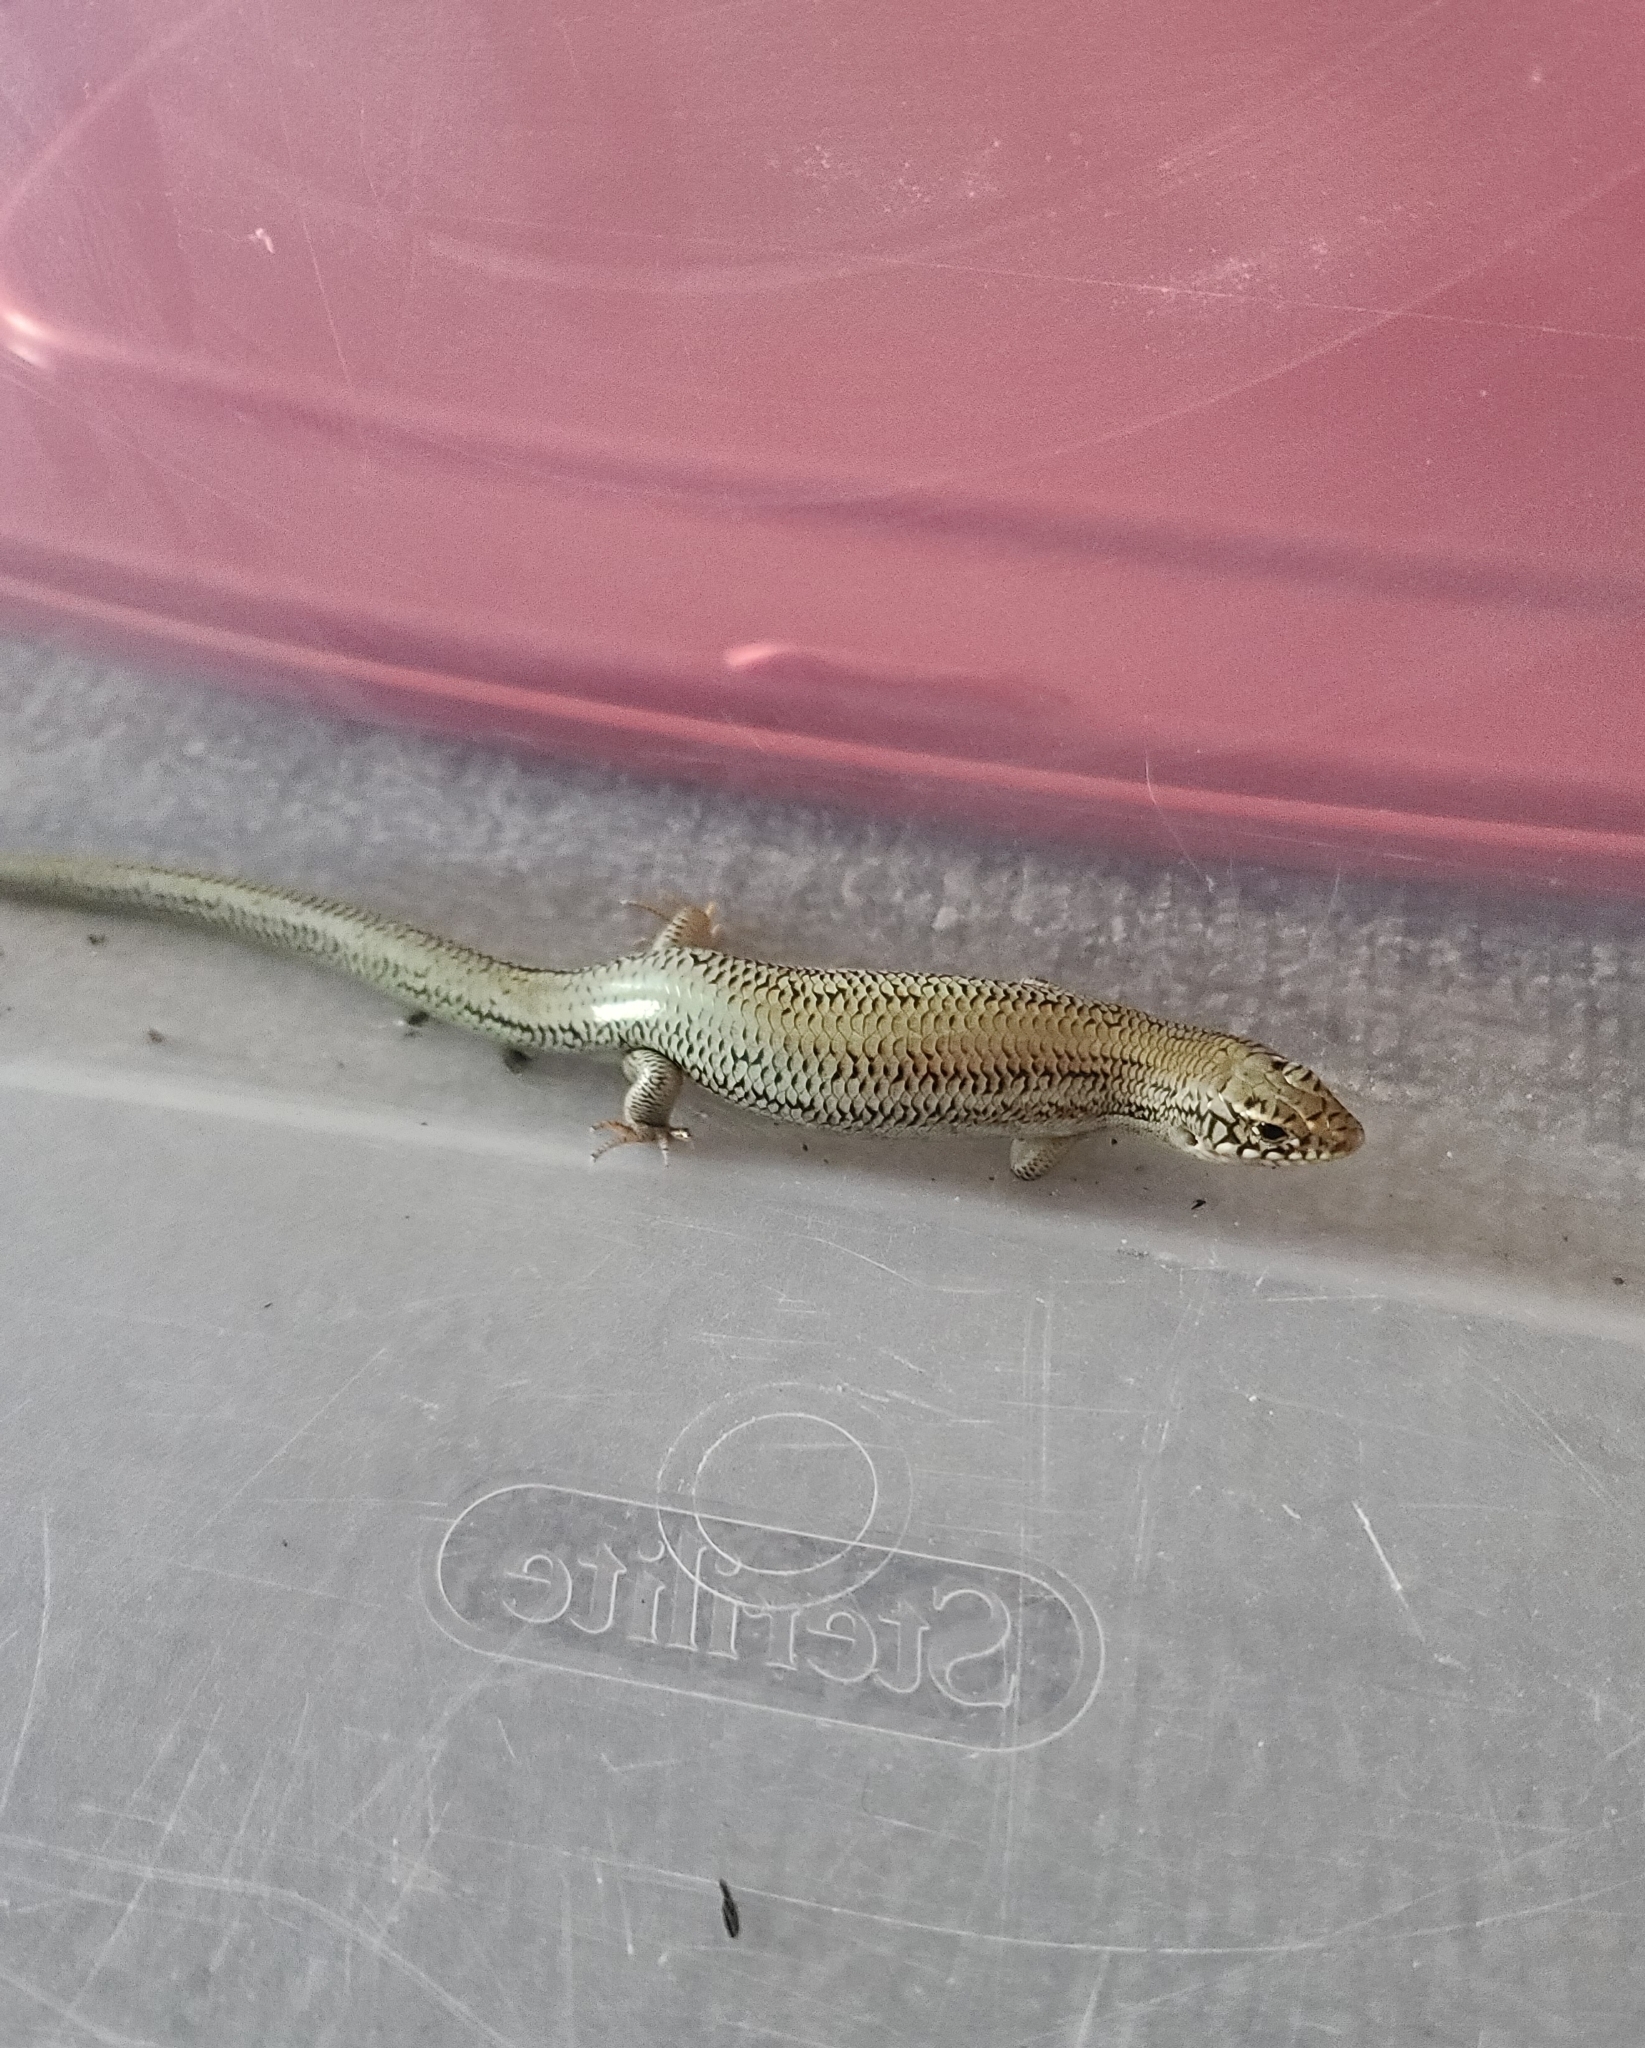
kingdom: Animalia
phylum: Chordata
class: Squamata
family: Scincidae
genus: Plestiodon
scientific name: Plestiodon obsoletus
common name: Great plains skink
